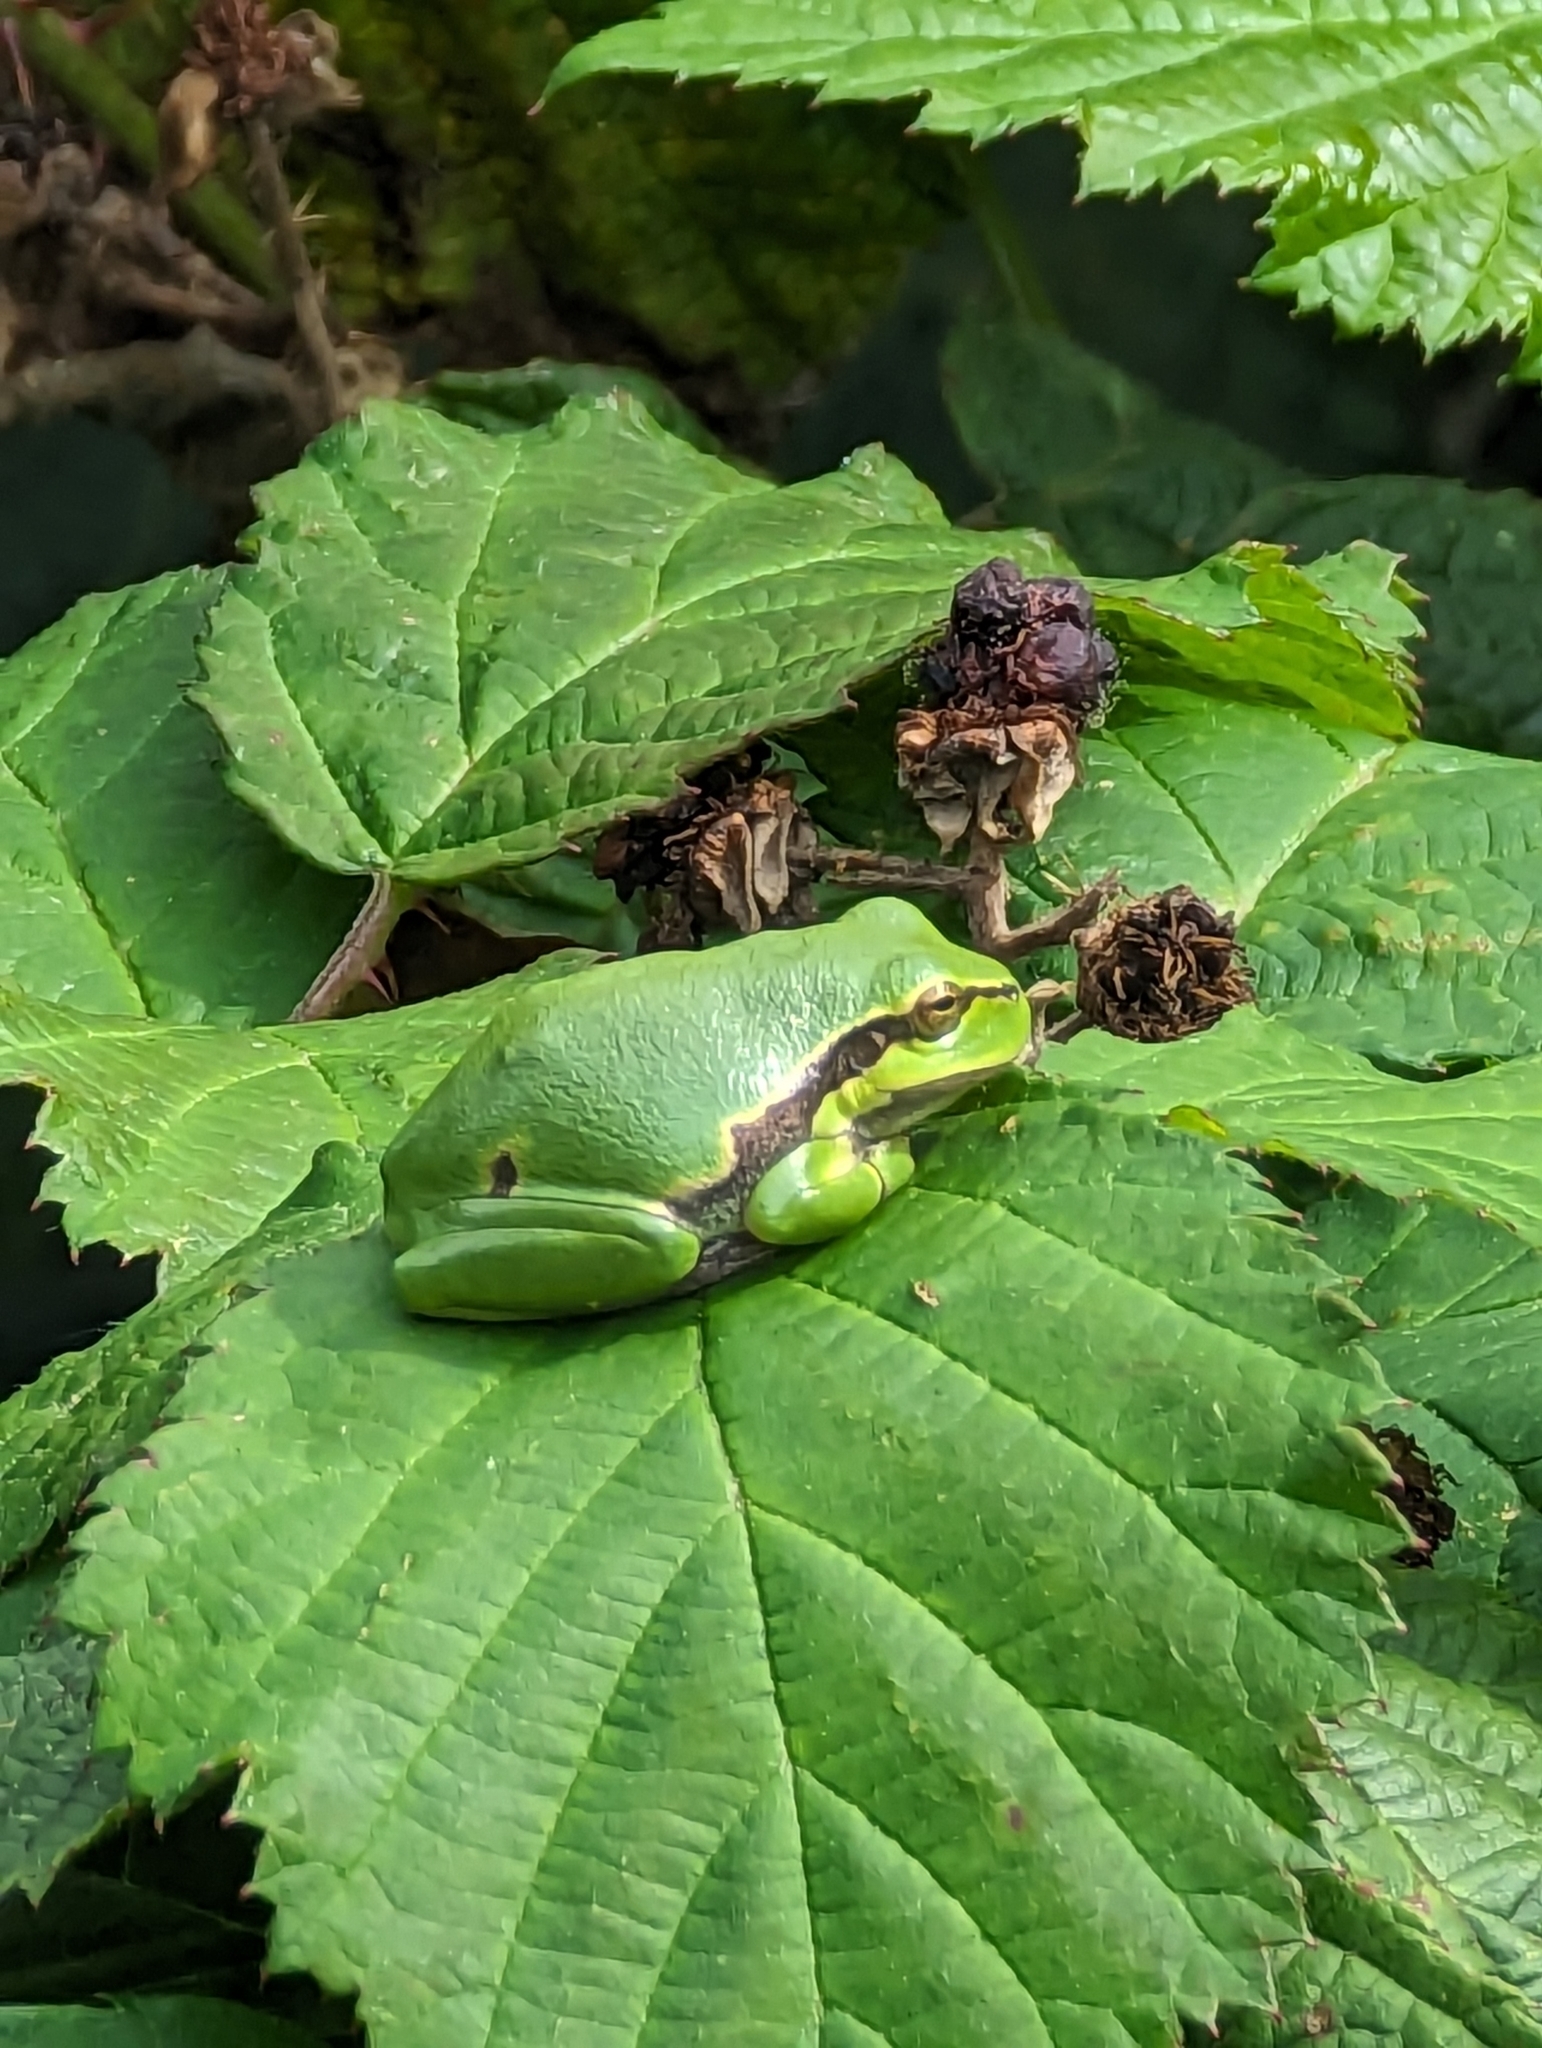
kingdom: Animalia
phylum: Chordata
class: Amphibia
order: Anura
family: Hylidae
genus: Hyla
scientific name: Hyla arborea
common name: Common tree frog
